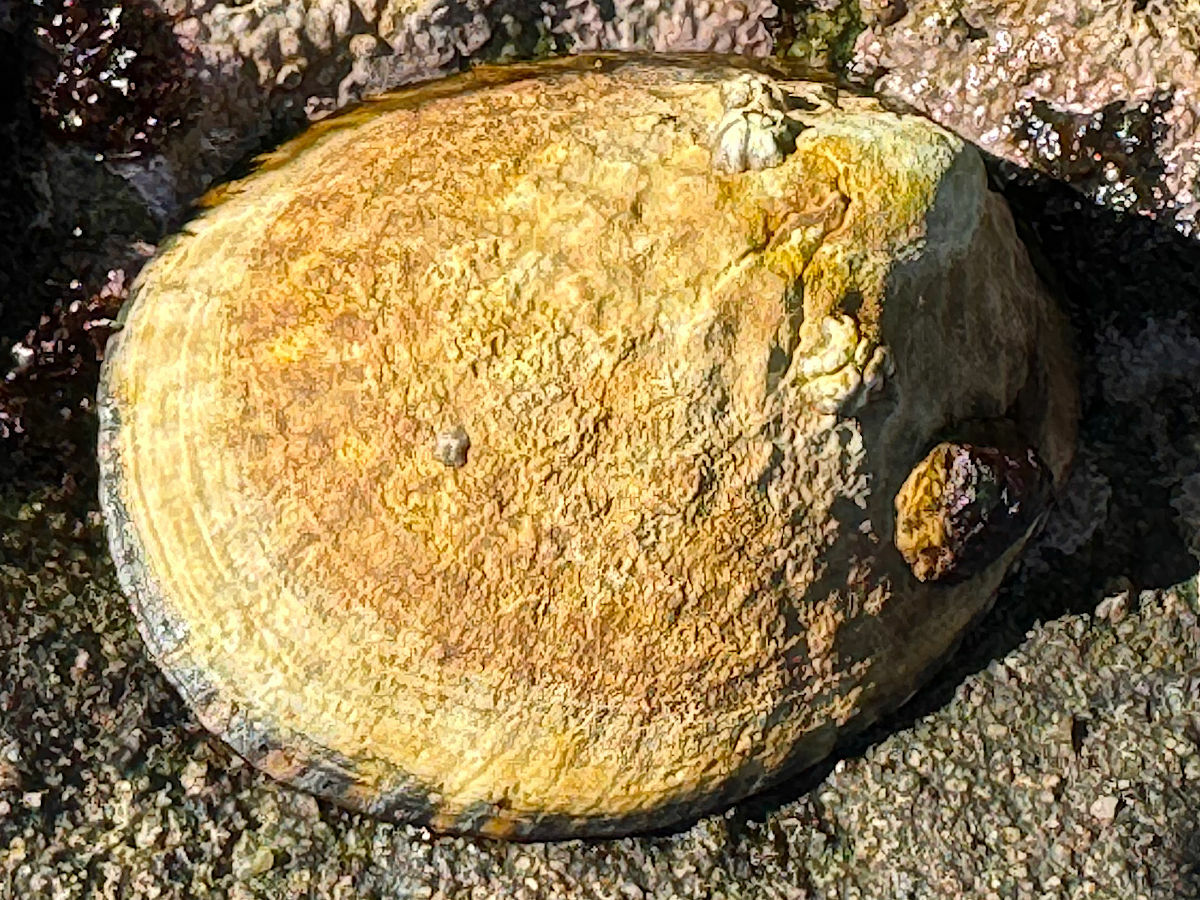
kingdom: Animalia
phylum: Mollusca
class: Gastropoda
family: Lottiidae
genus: Lottia
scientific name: Lottia gigantea
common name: Owl limpet
